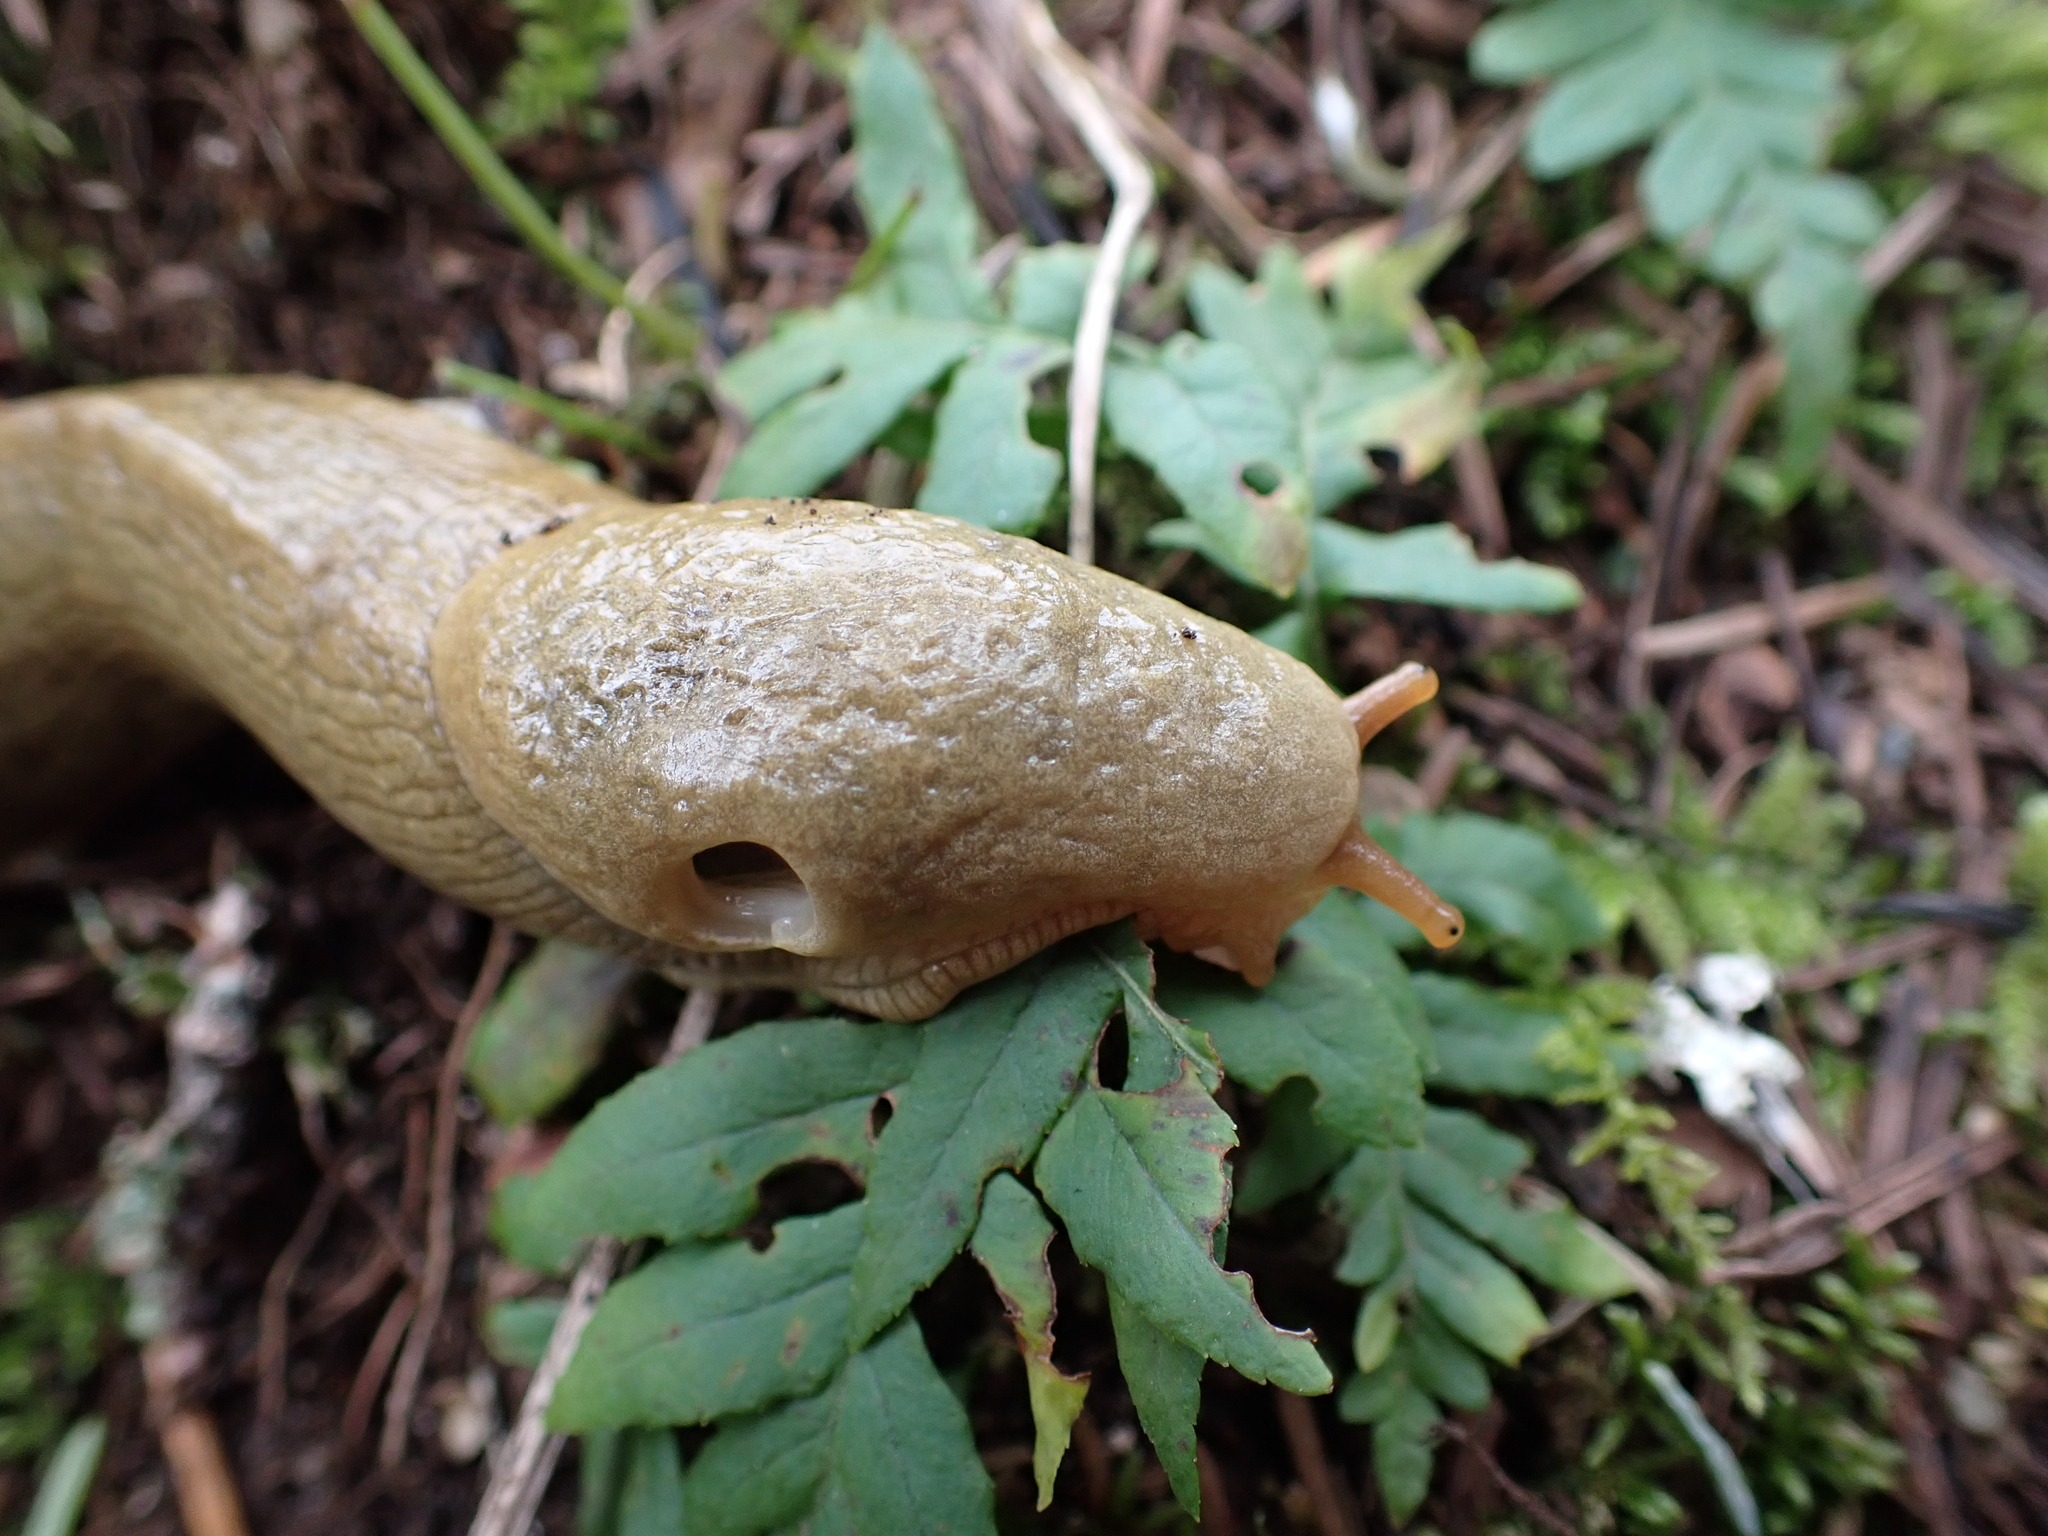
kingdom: Animalia
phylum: Mollusca
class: Gastropoda
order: Stylommatophora
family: Ariolimacidae
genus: Ariolimax
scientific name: Ariolimax columbianus
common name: Pacific banana slug
